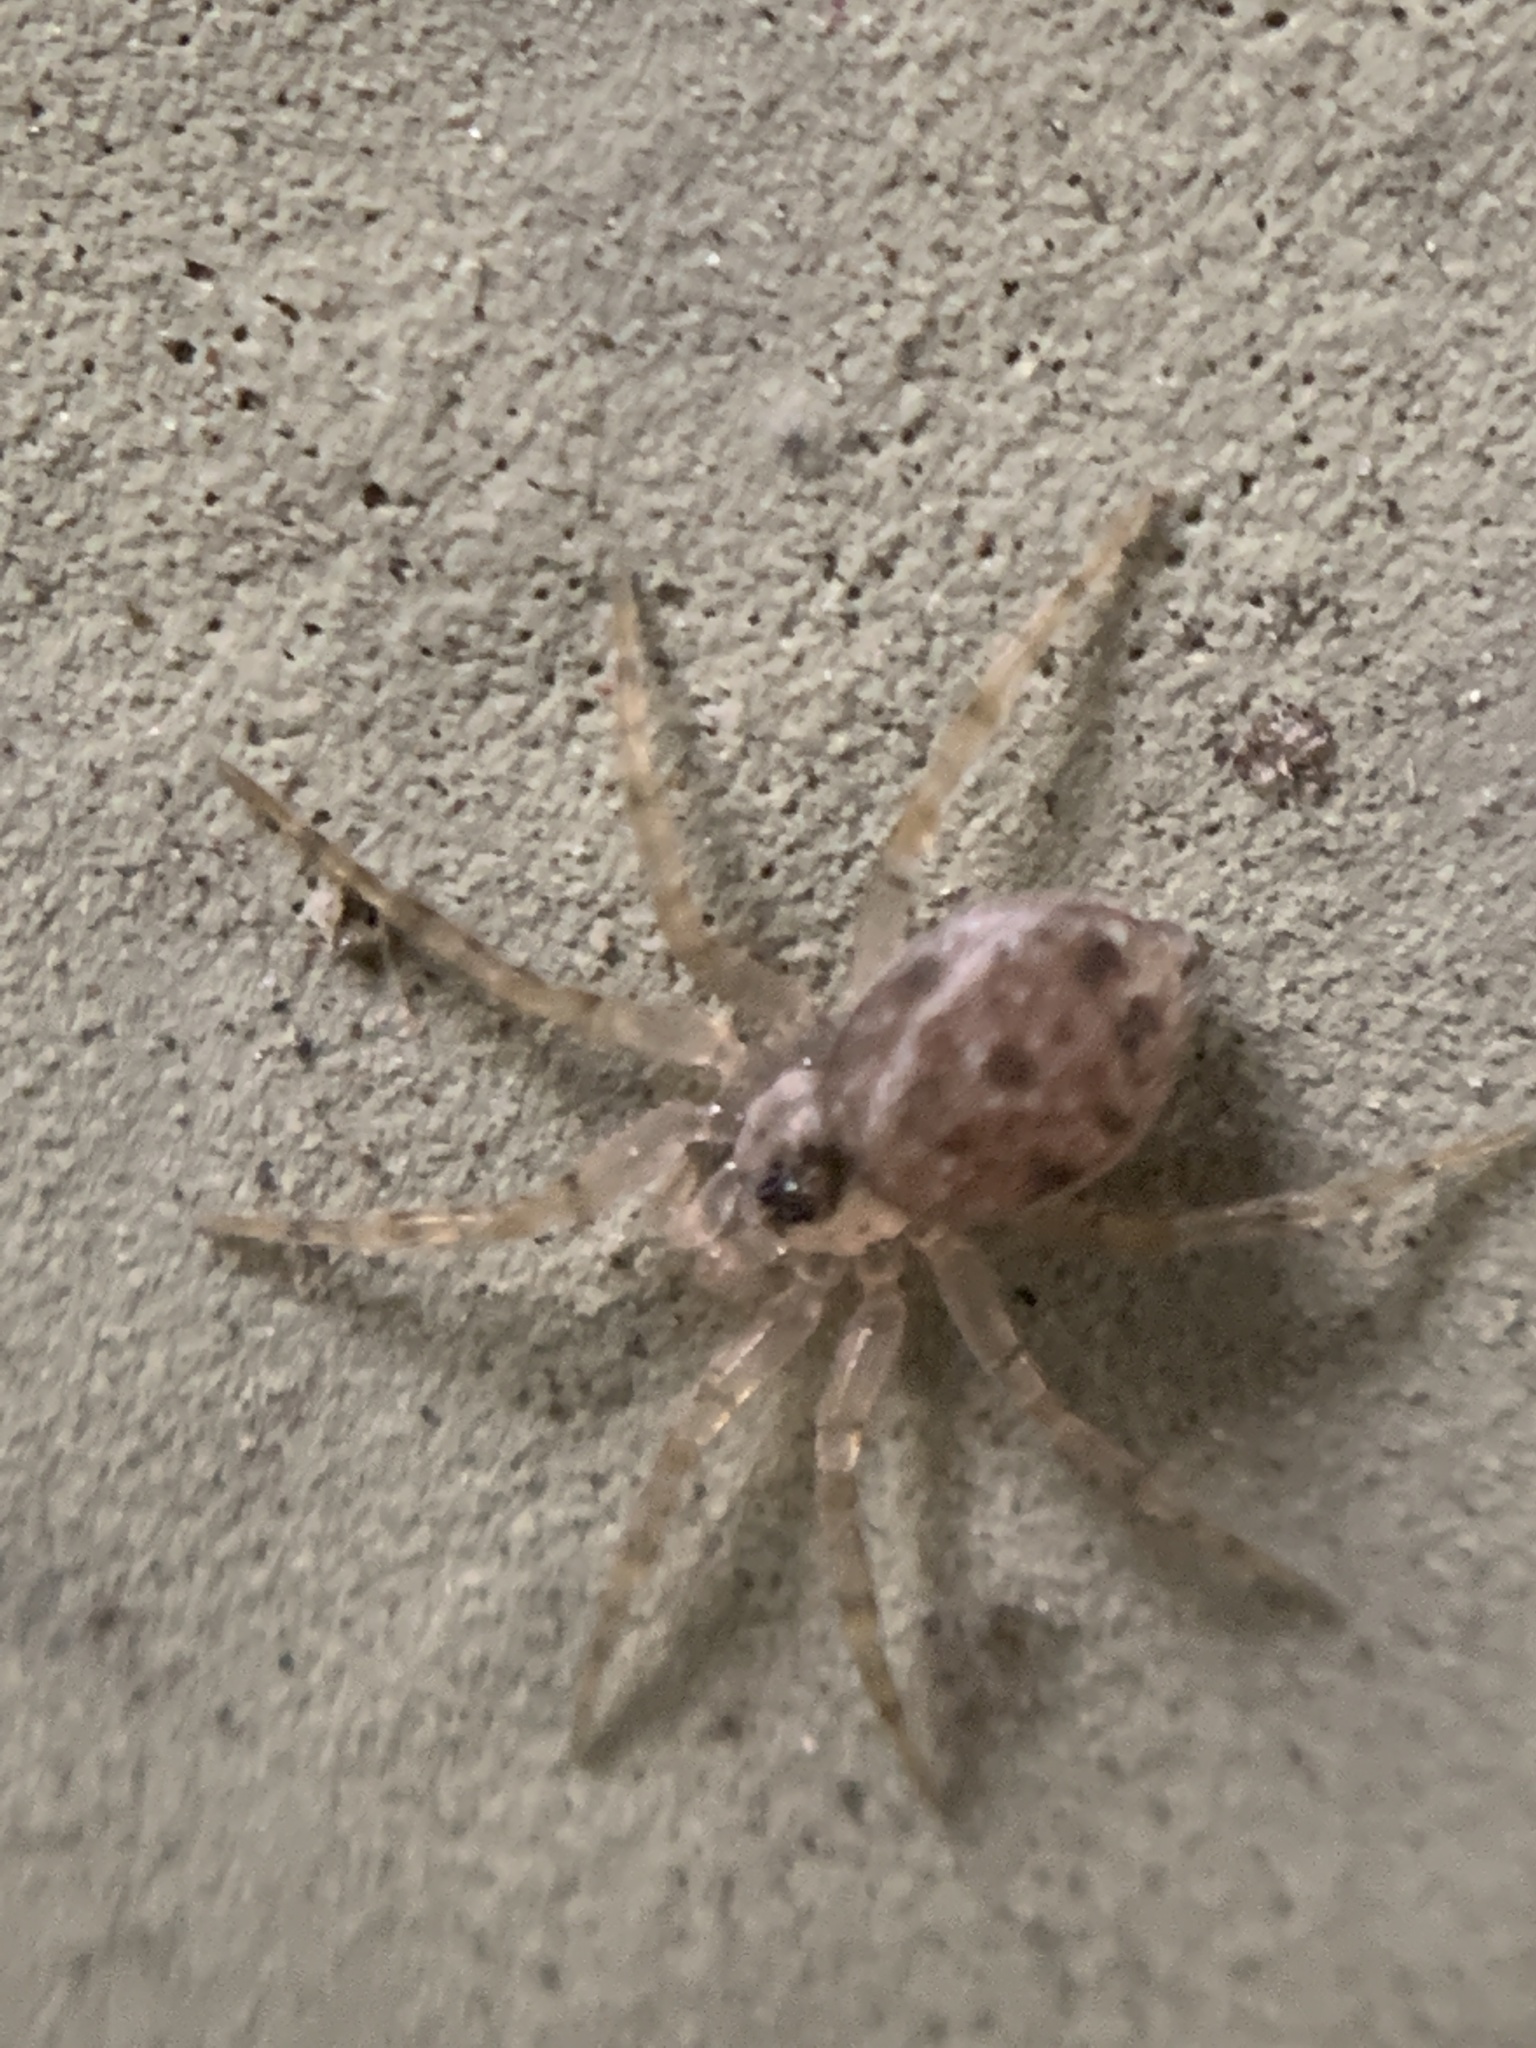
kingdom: Animalia
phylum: Arthropoda
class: Arachnida
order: Araneae
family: Oecobiidae
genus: Oecobius
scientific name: Oecobius navus
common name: Flatmesh weaver
